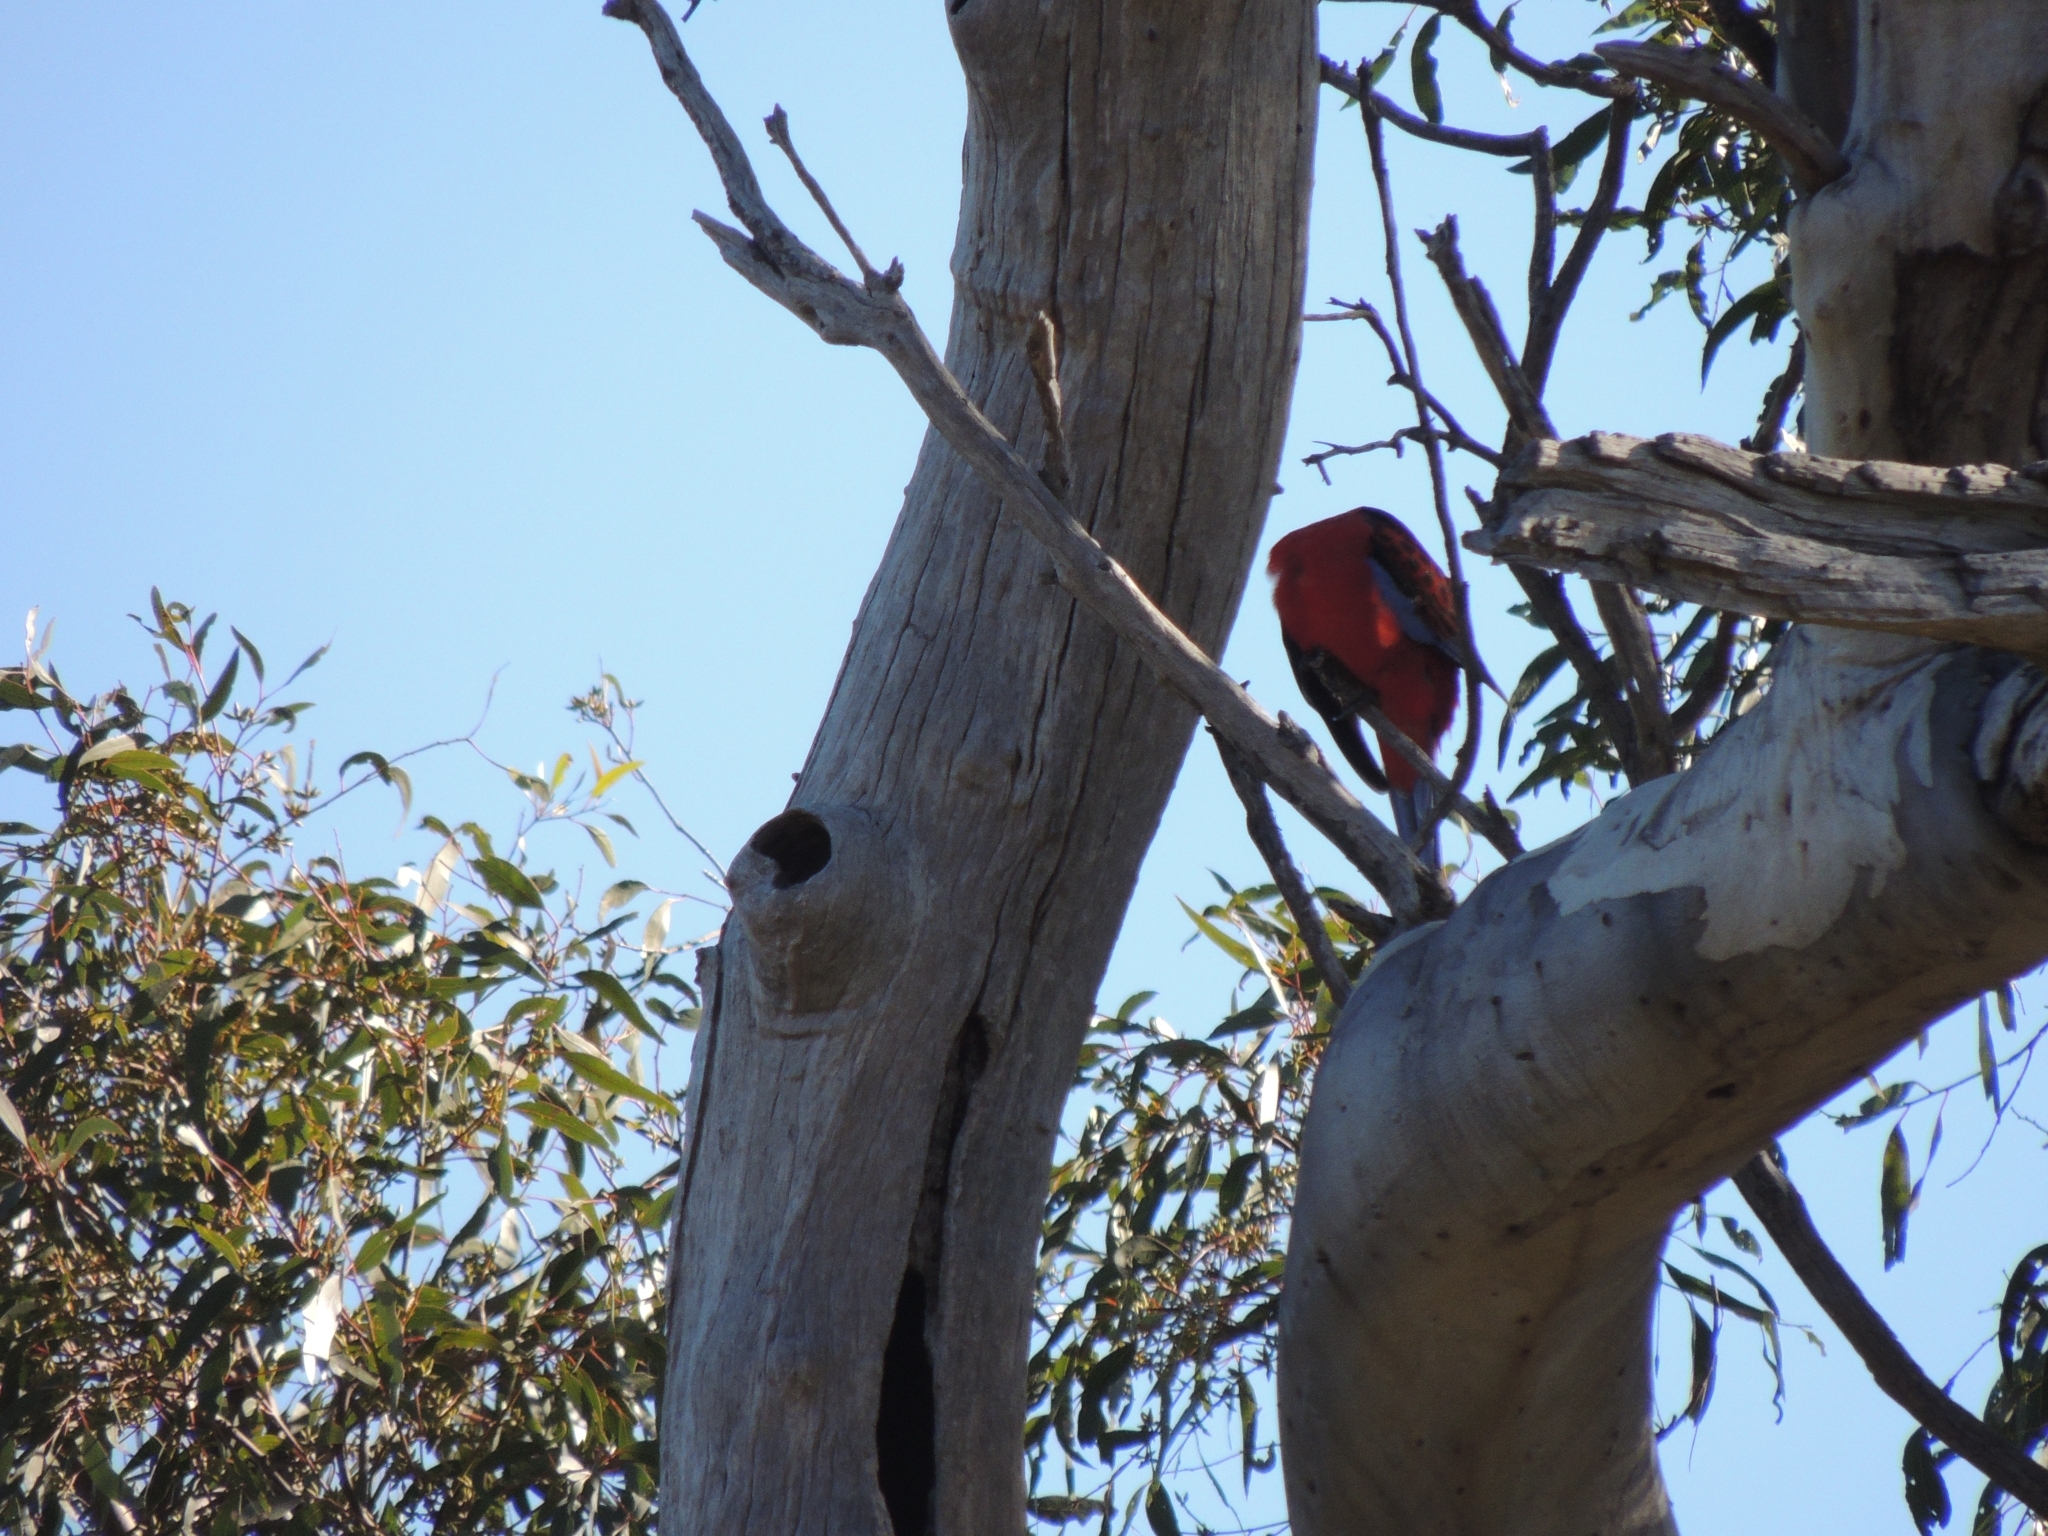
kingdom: Animalia
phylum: Chordata
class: Aves
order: Psittaciformes
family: Psittacidae
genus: Platycercus
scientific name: Platycercus elegans
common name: Crimson rosella
